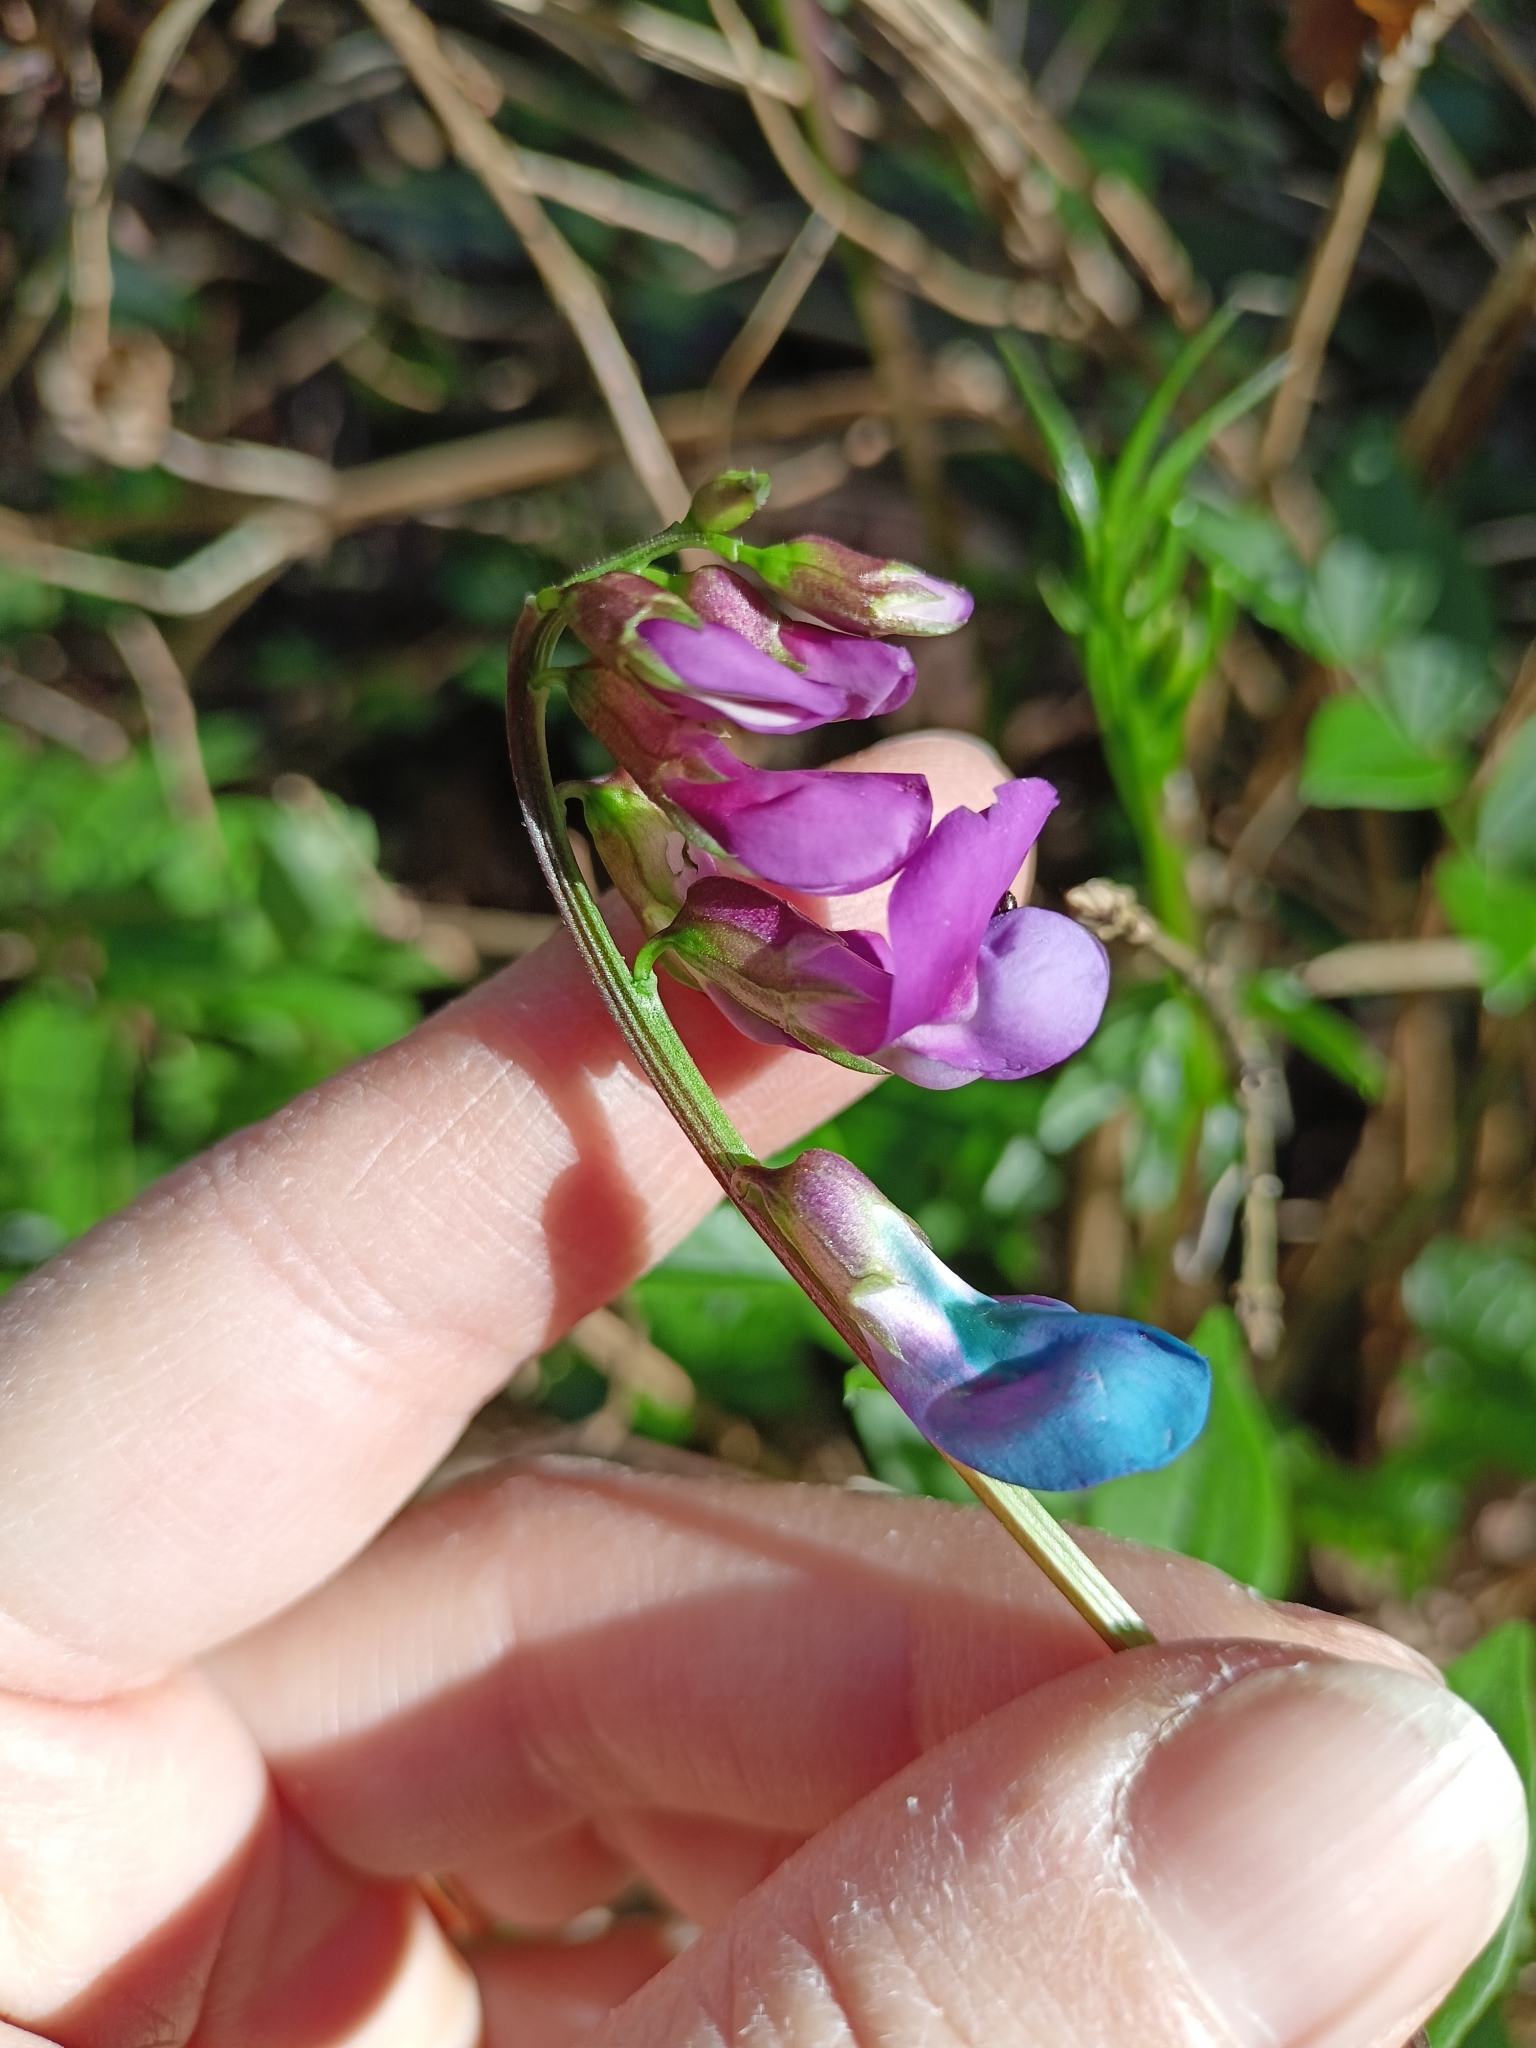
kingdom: Plantae
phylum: Tracheophyta
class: Magnoliopsida
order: Fabales
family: Fabaceae
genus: Lathyrus
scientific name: Lathyrus vernus
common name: Spring pea
